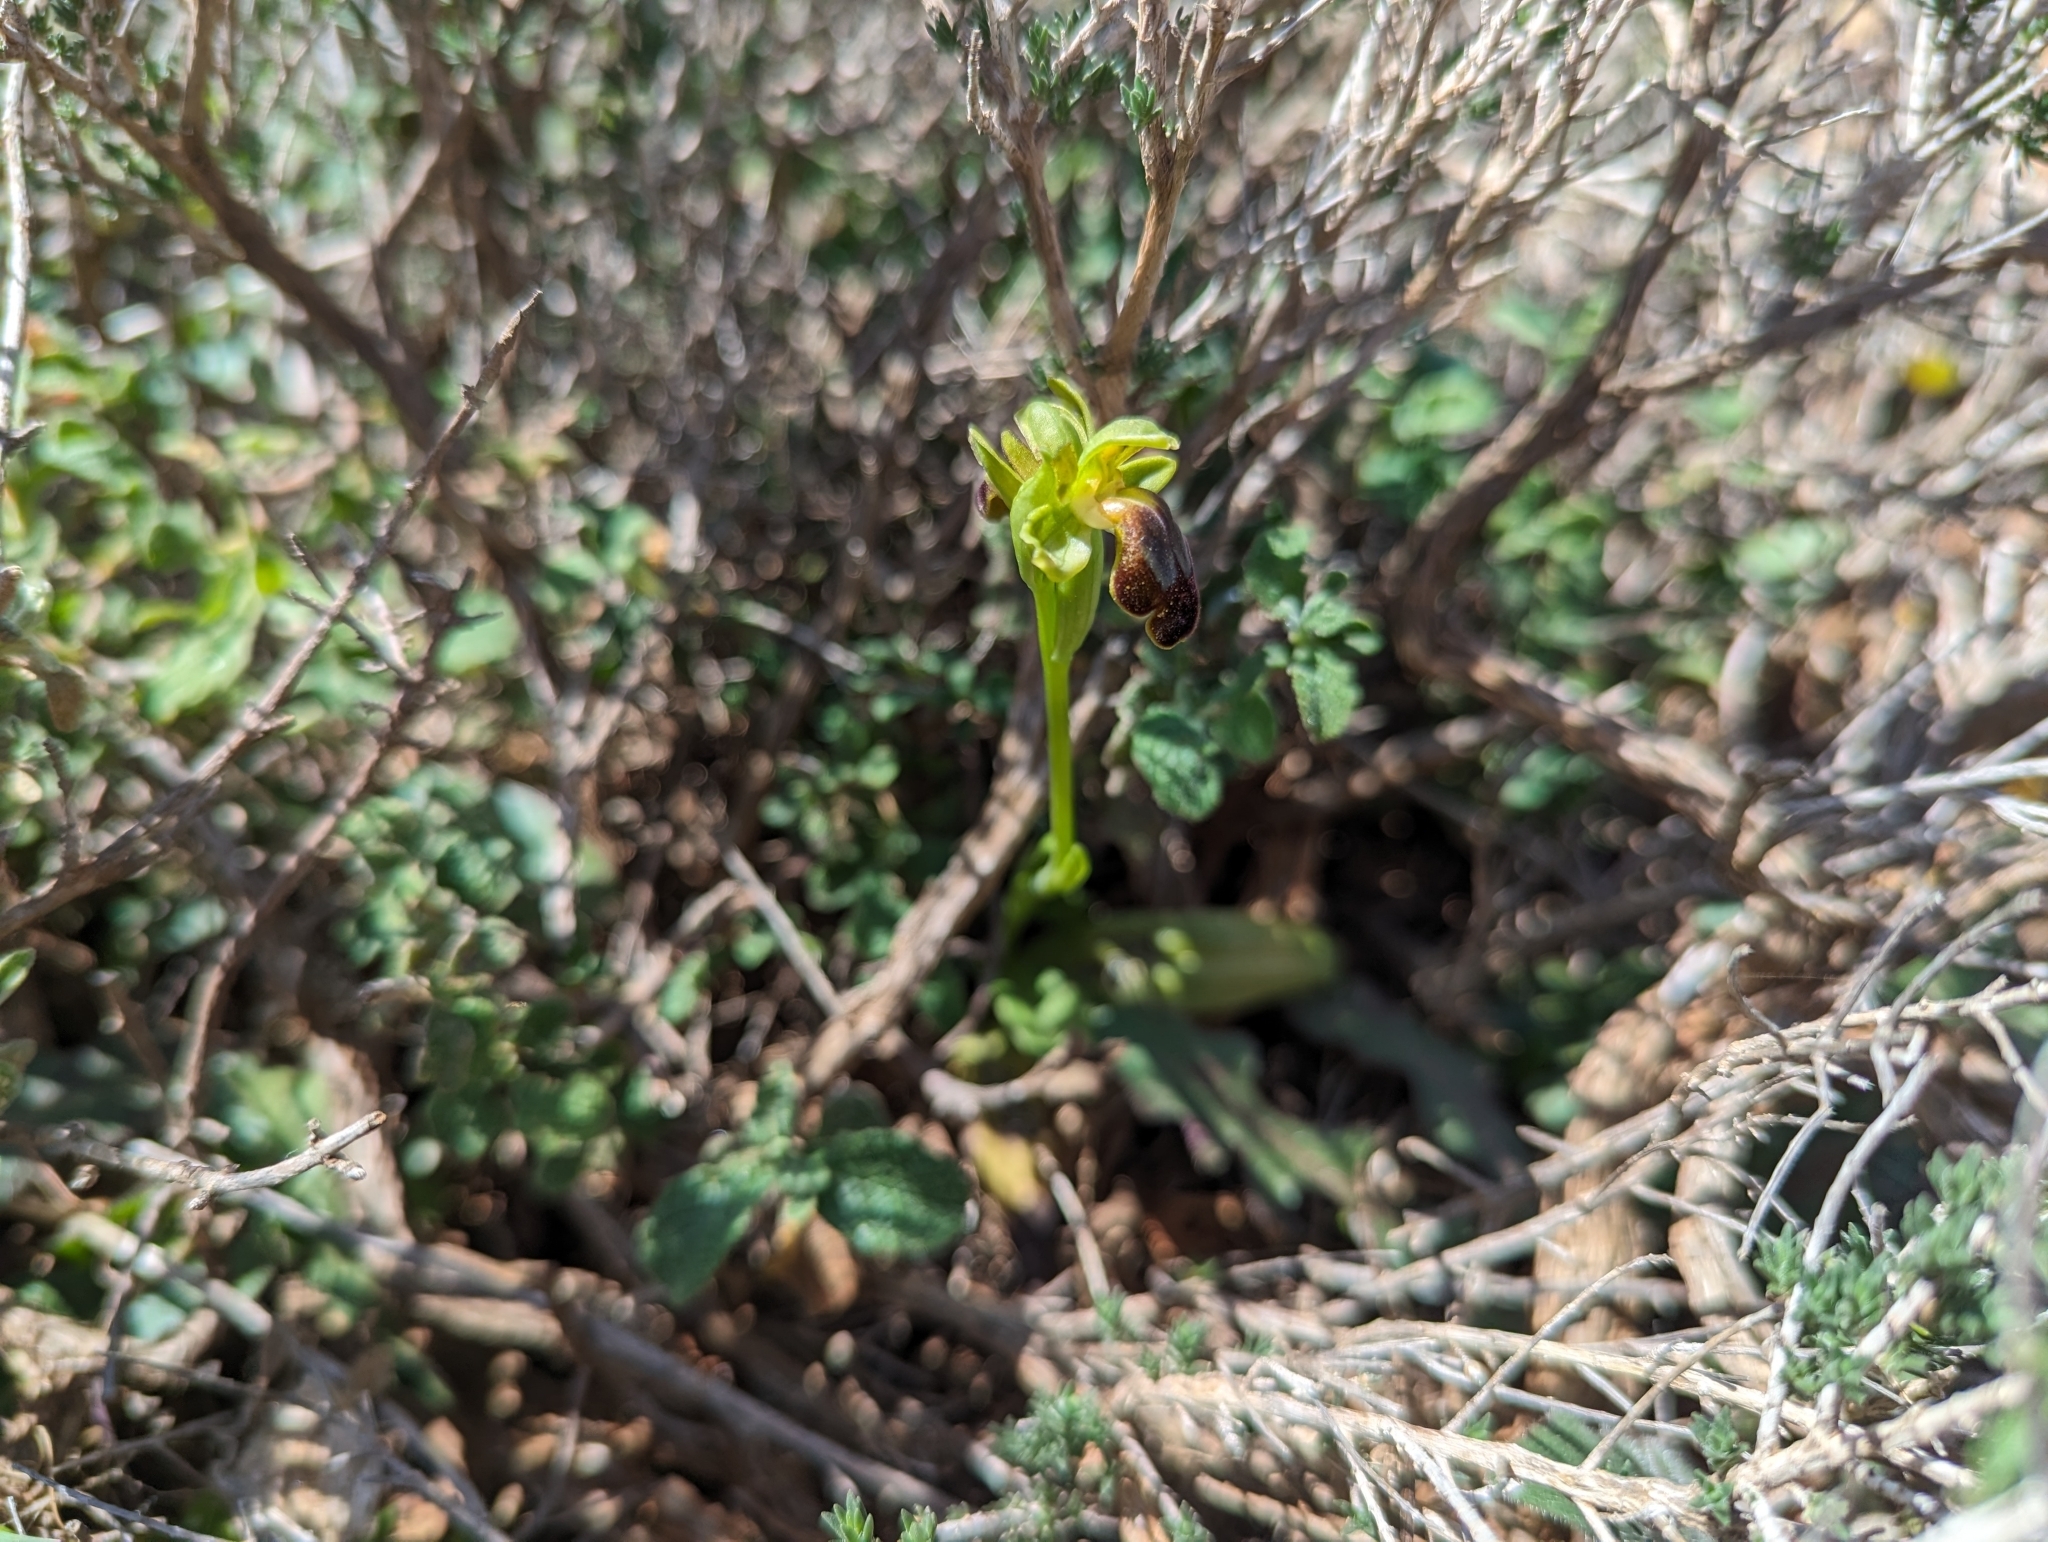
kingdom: Plantae
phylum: Tracheophyta
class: Liliopsida
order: Asparagales
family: Orchidaceae
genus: Ophrys
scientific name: Ophrys fusca
